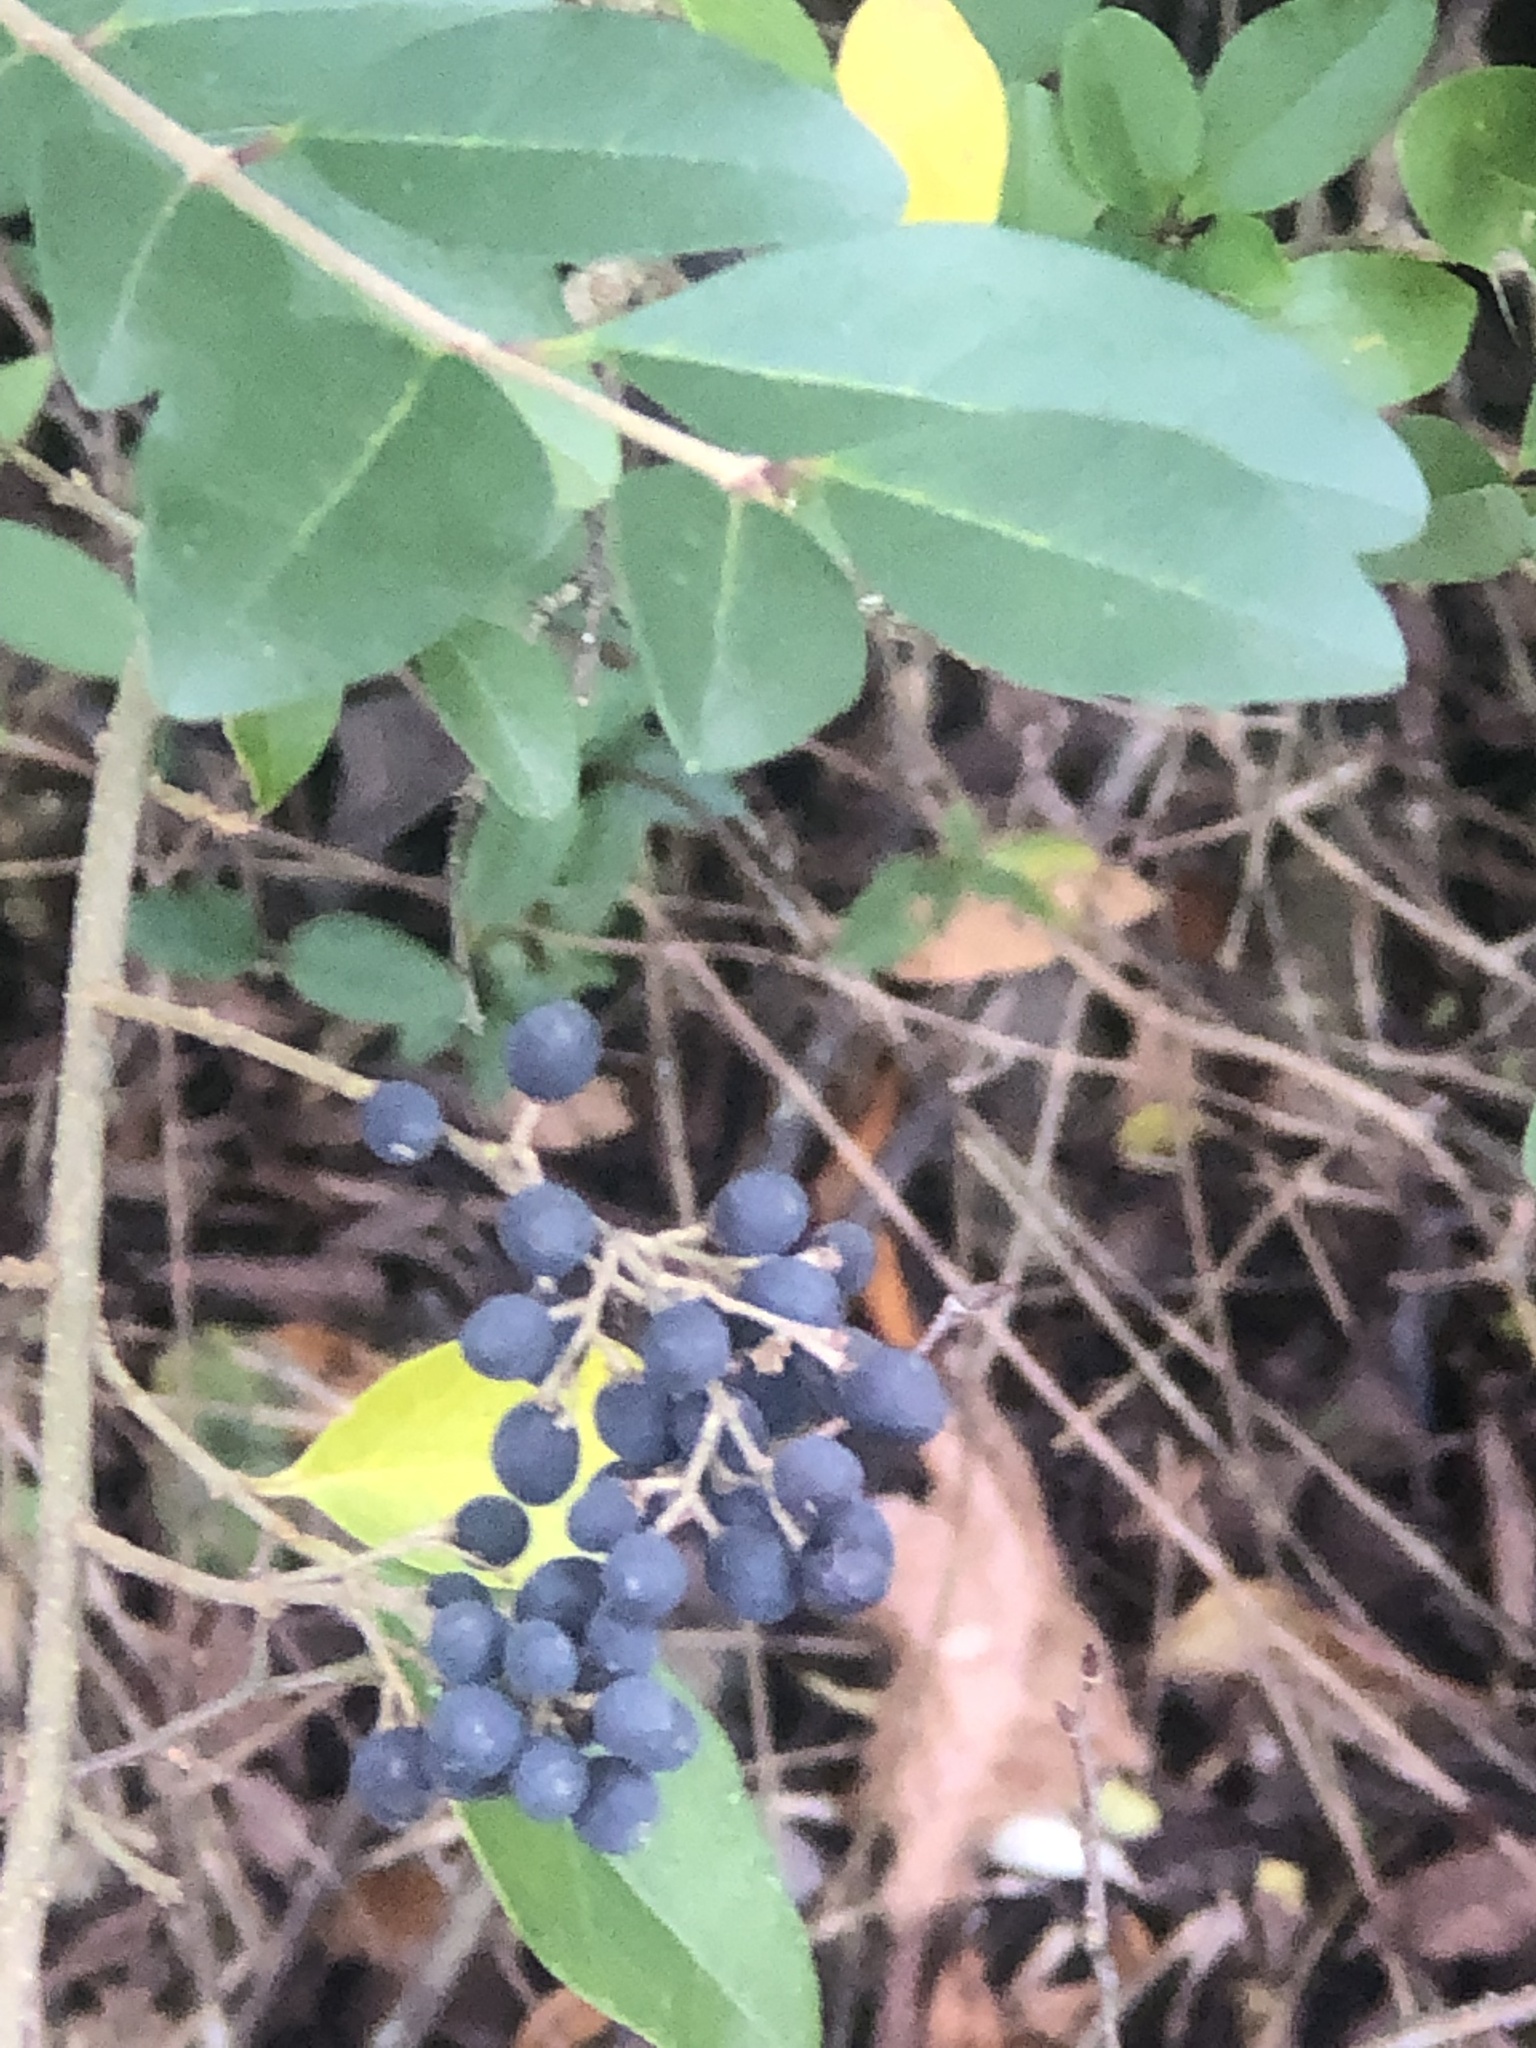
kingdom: Plantae
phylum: Tracheophyta
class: Magnoliopsida
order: Lamiales
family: Oleaceae
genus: Ligustrum
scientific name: Ligustrum sinense
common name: Chinese privet
